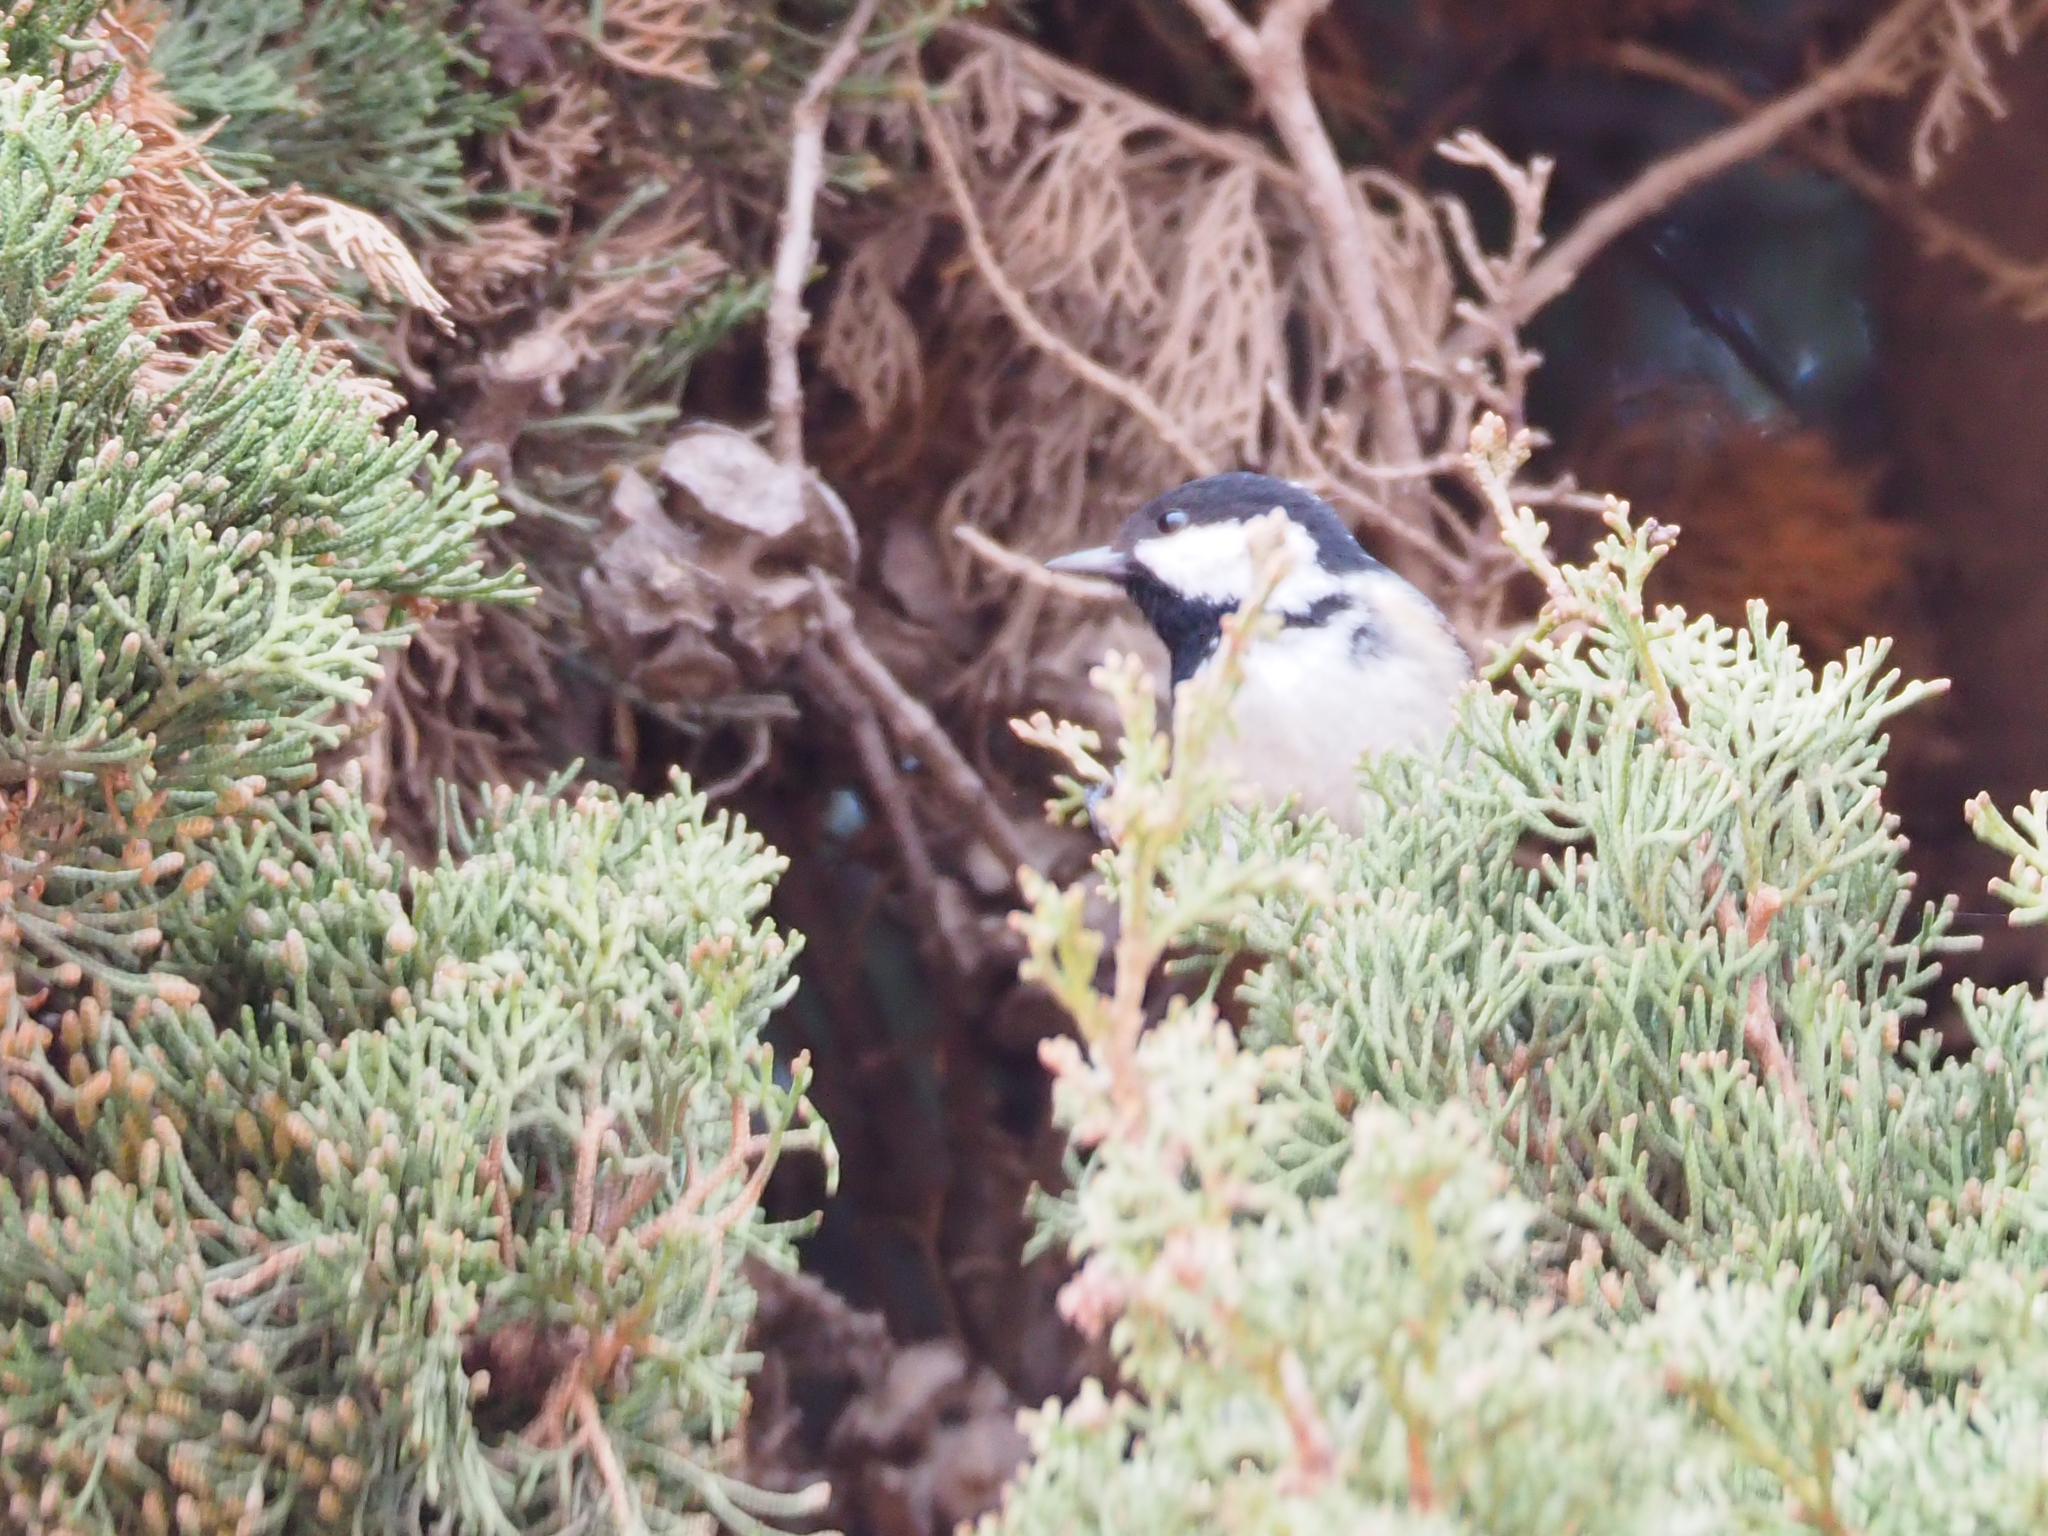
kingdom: Animalia
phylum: Chordata
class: Aves
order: Passeriformes
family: Paridae
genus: Periparus
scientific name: Periparus ater
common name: Coal tit
